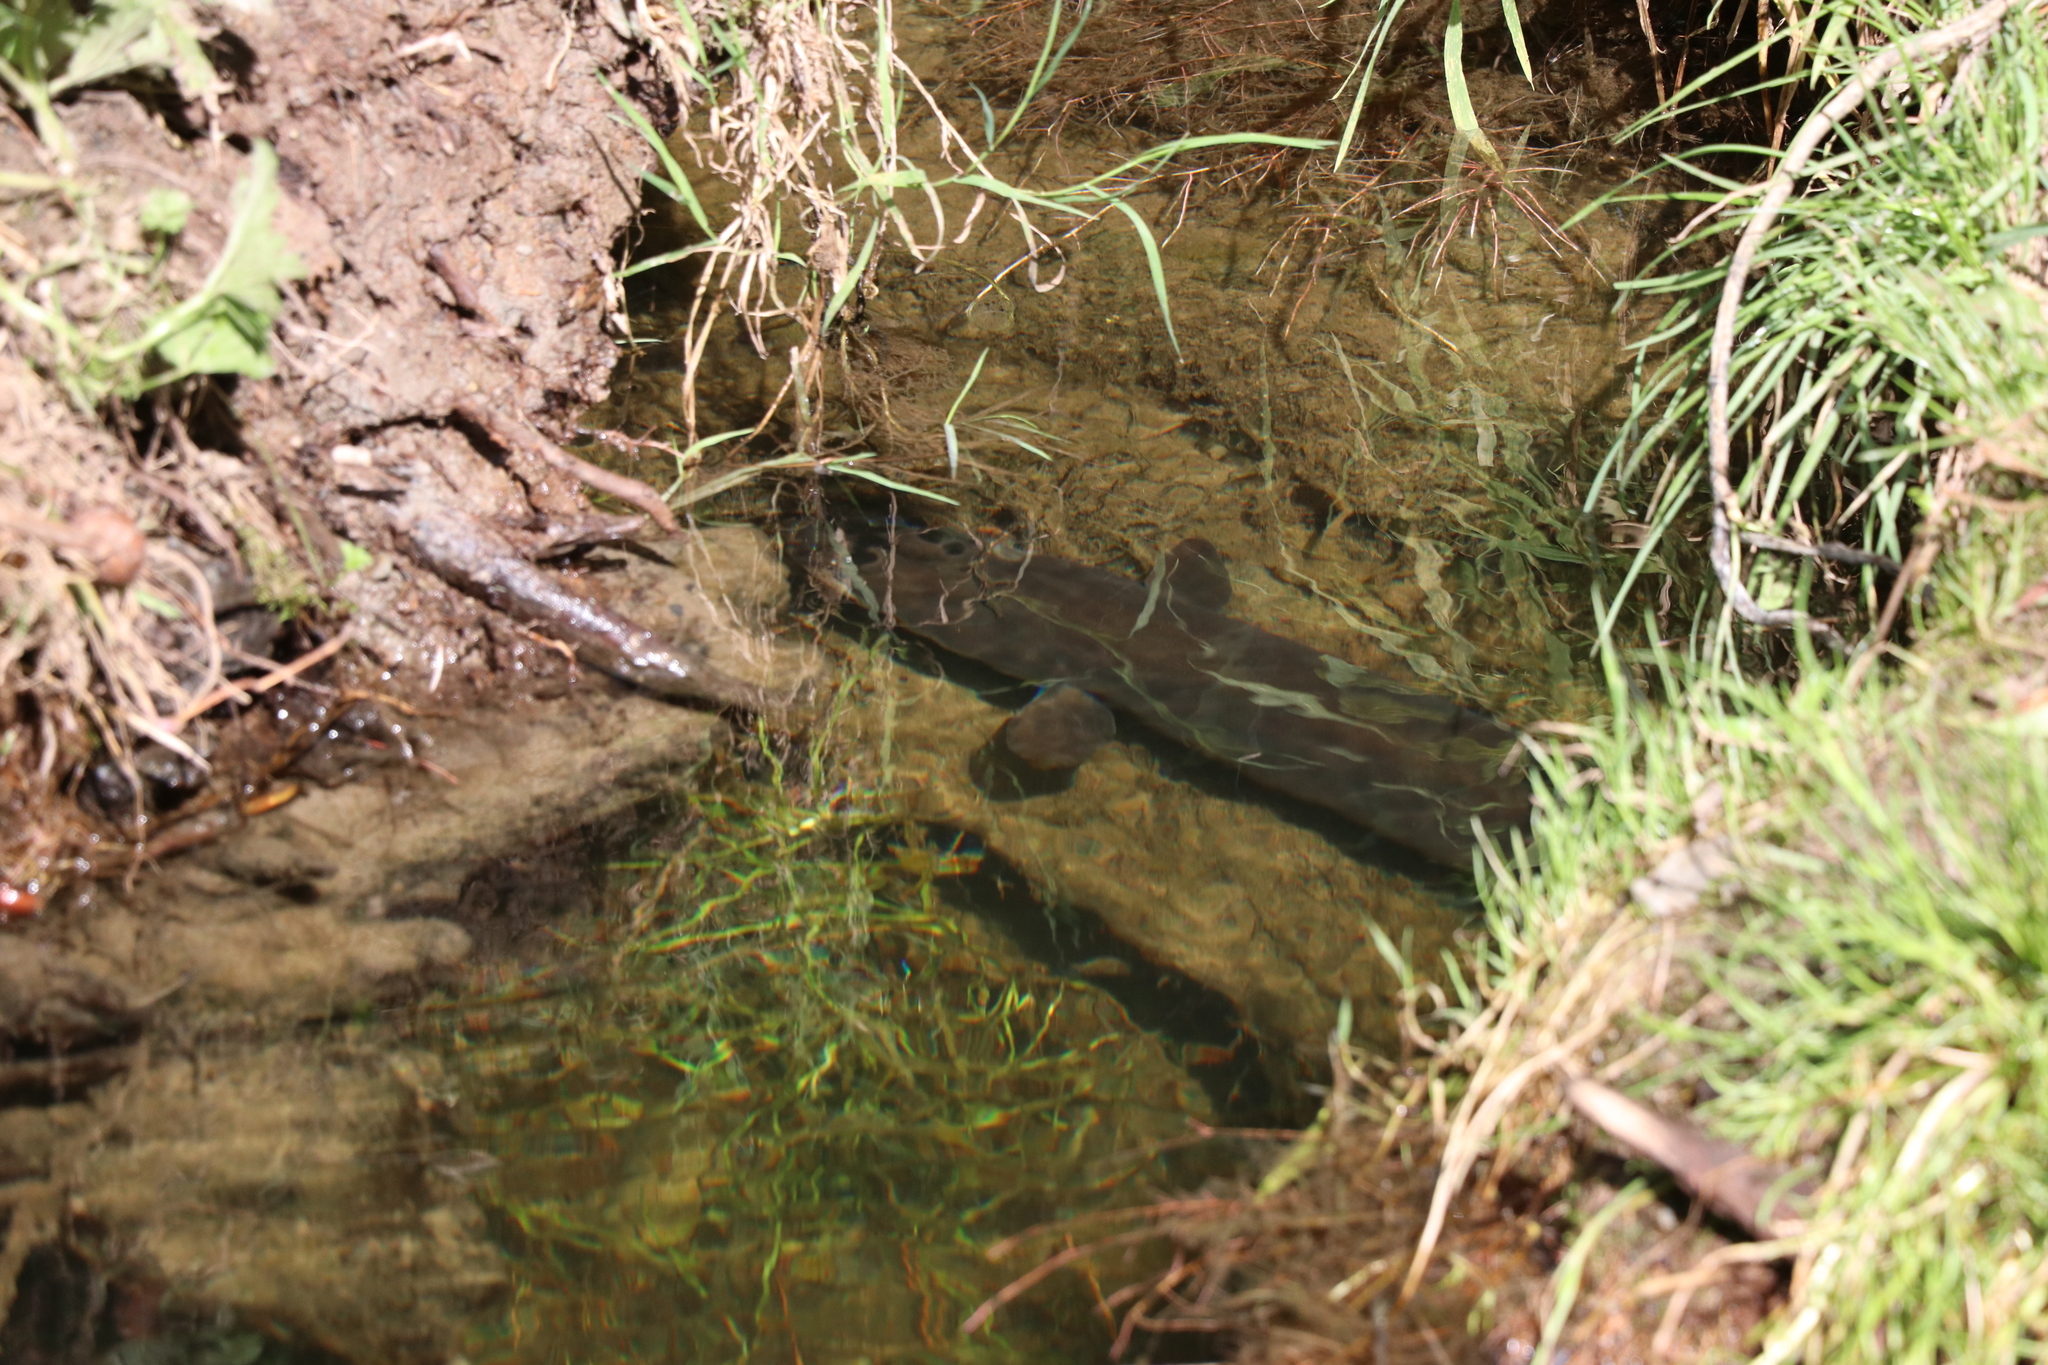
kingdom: Animalia
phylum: Chordata
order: Anguilliformes
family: Anguillidae
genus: Anguilla
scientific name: Anguilla dieffenbachii
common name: New zealand longfin eel
